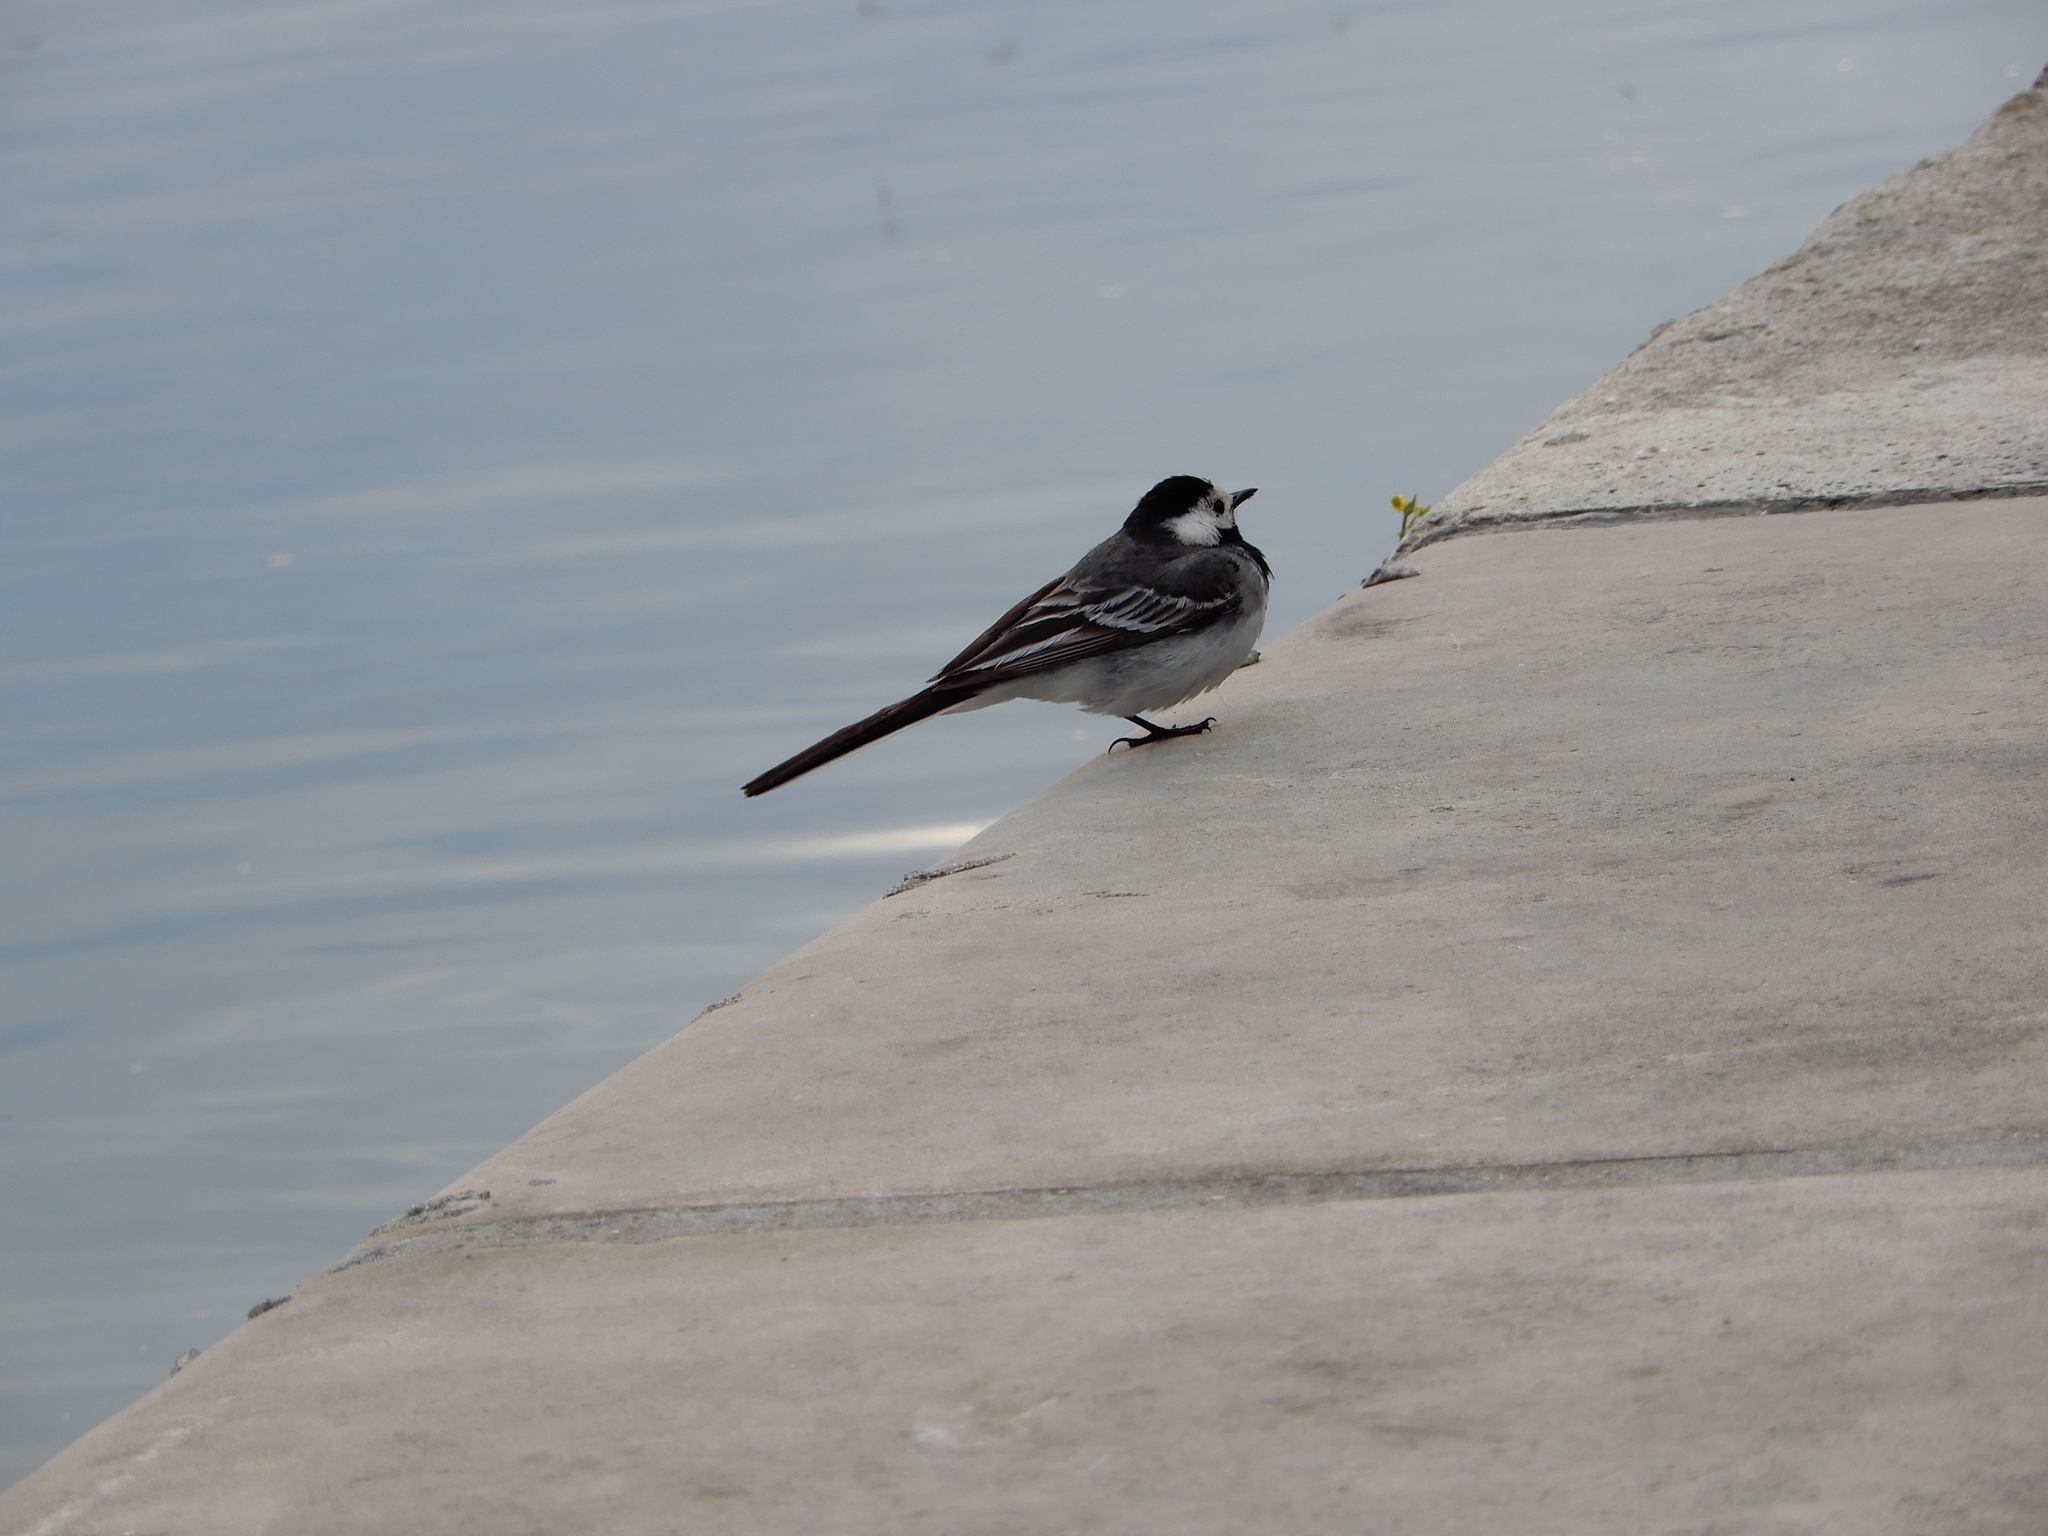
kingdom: Animalia
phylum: Chordata
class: Aves
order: Passeriformes
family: Motacillidae
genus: Motacilla
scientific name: Motacilla alba
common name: White wagtail
